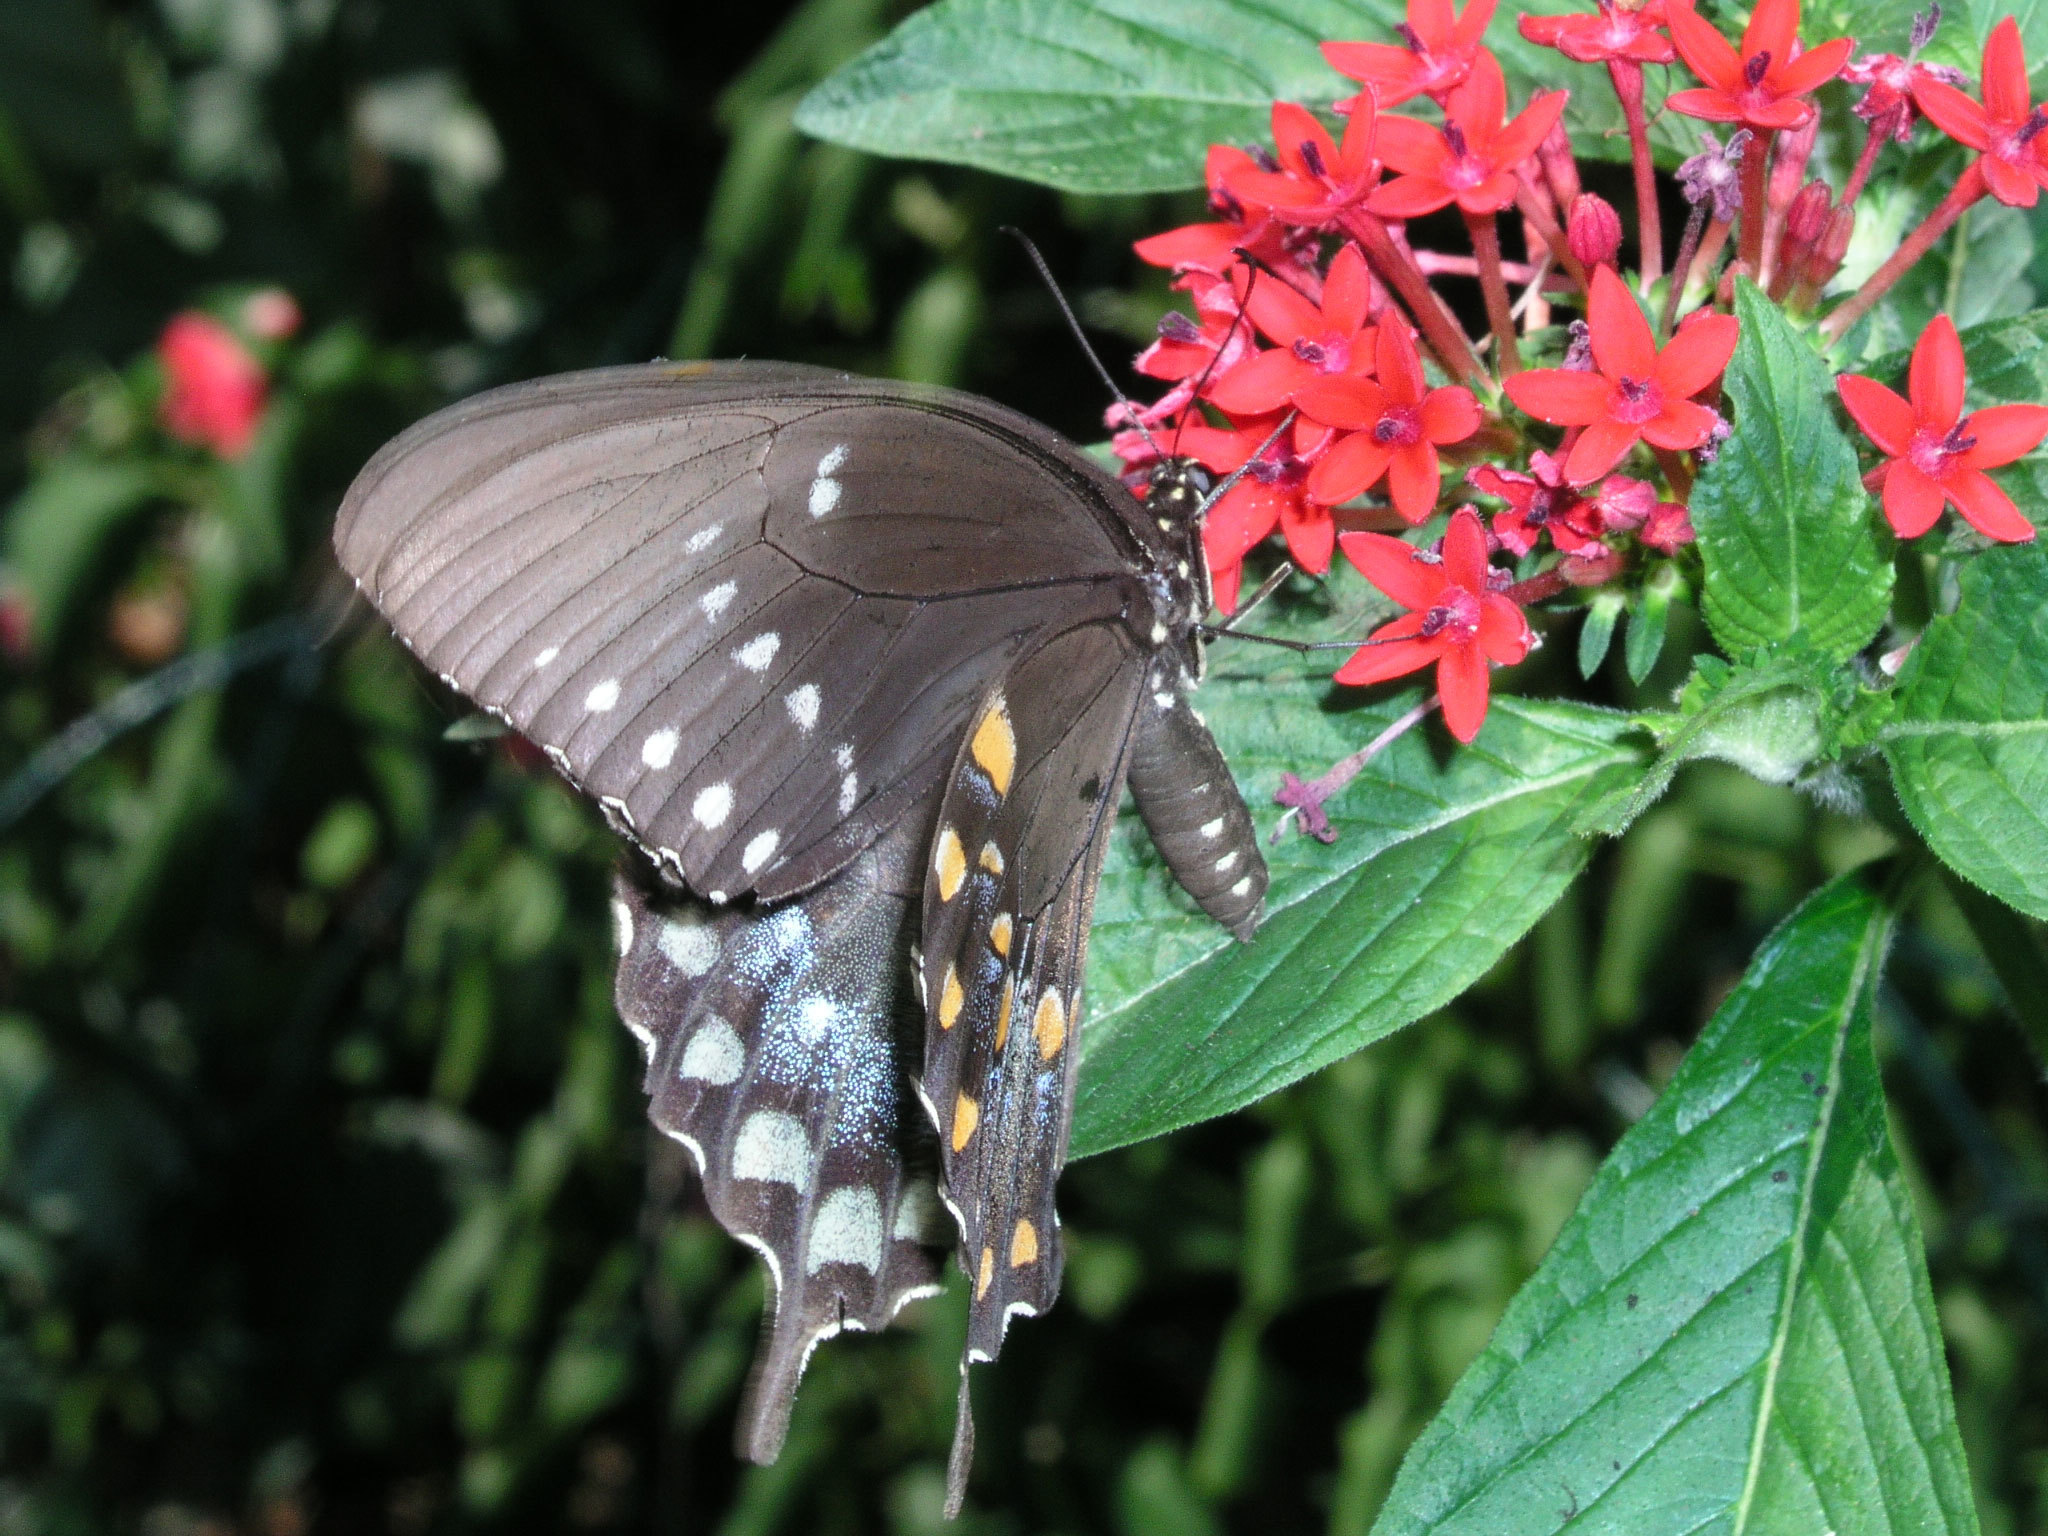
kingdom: Animalia
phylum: Arthropoda
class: Insecta
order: Lepidoptera
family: Papilionidae
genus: Papilio
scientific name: Papilio troilus
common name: Spicebush swallowtail
